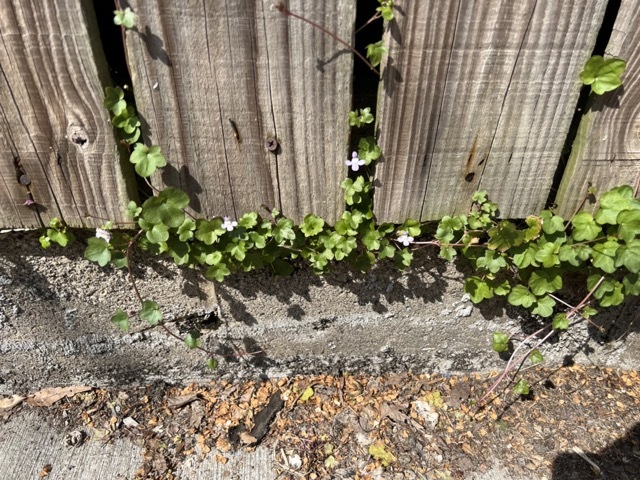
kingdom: Plantae
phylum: Tracheophyta
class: Magnoliopsida
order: Lamiales
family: Plantaginaceae
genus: Cymbalaria
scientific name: Cymbalaria muralis
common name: Ivy-leaved toadflax
